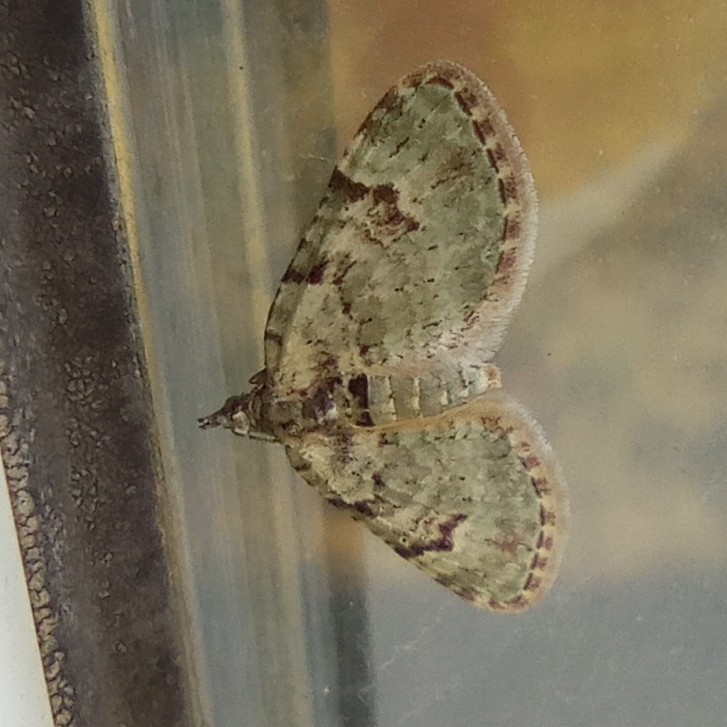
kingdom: Animalia
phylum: Arthropoda
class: Insecta
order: Lepidoptera
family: Geometridae
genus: Chloroclystis
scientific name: Chloroclystis v-ata
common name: V-pug
